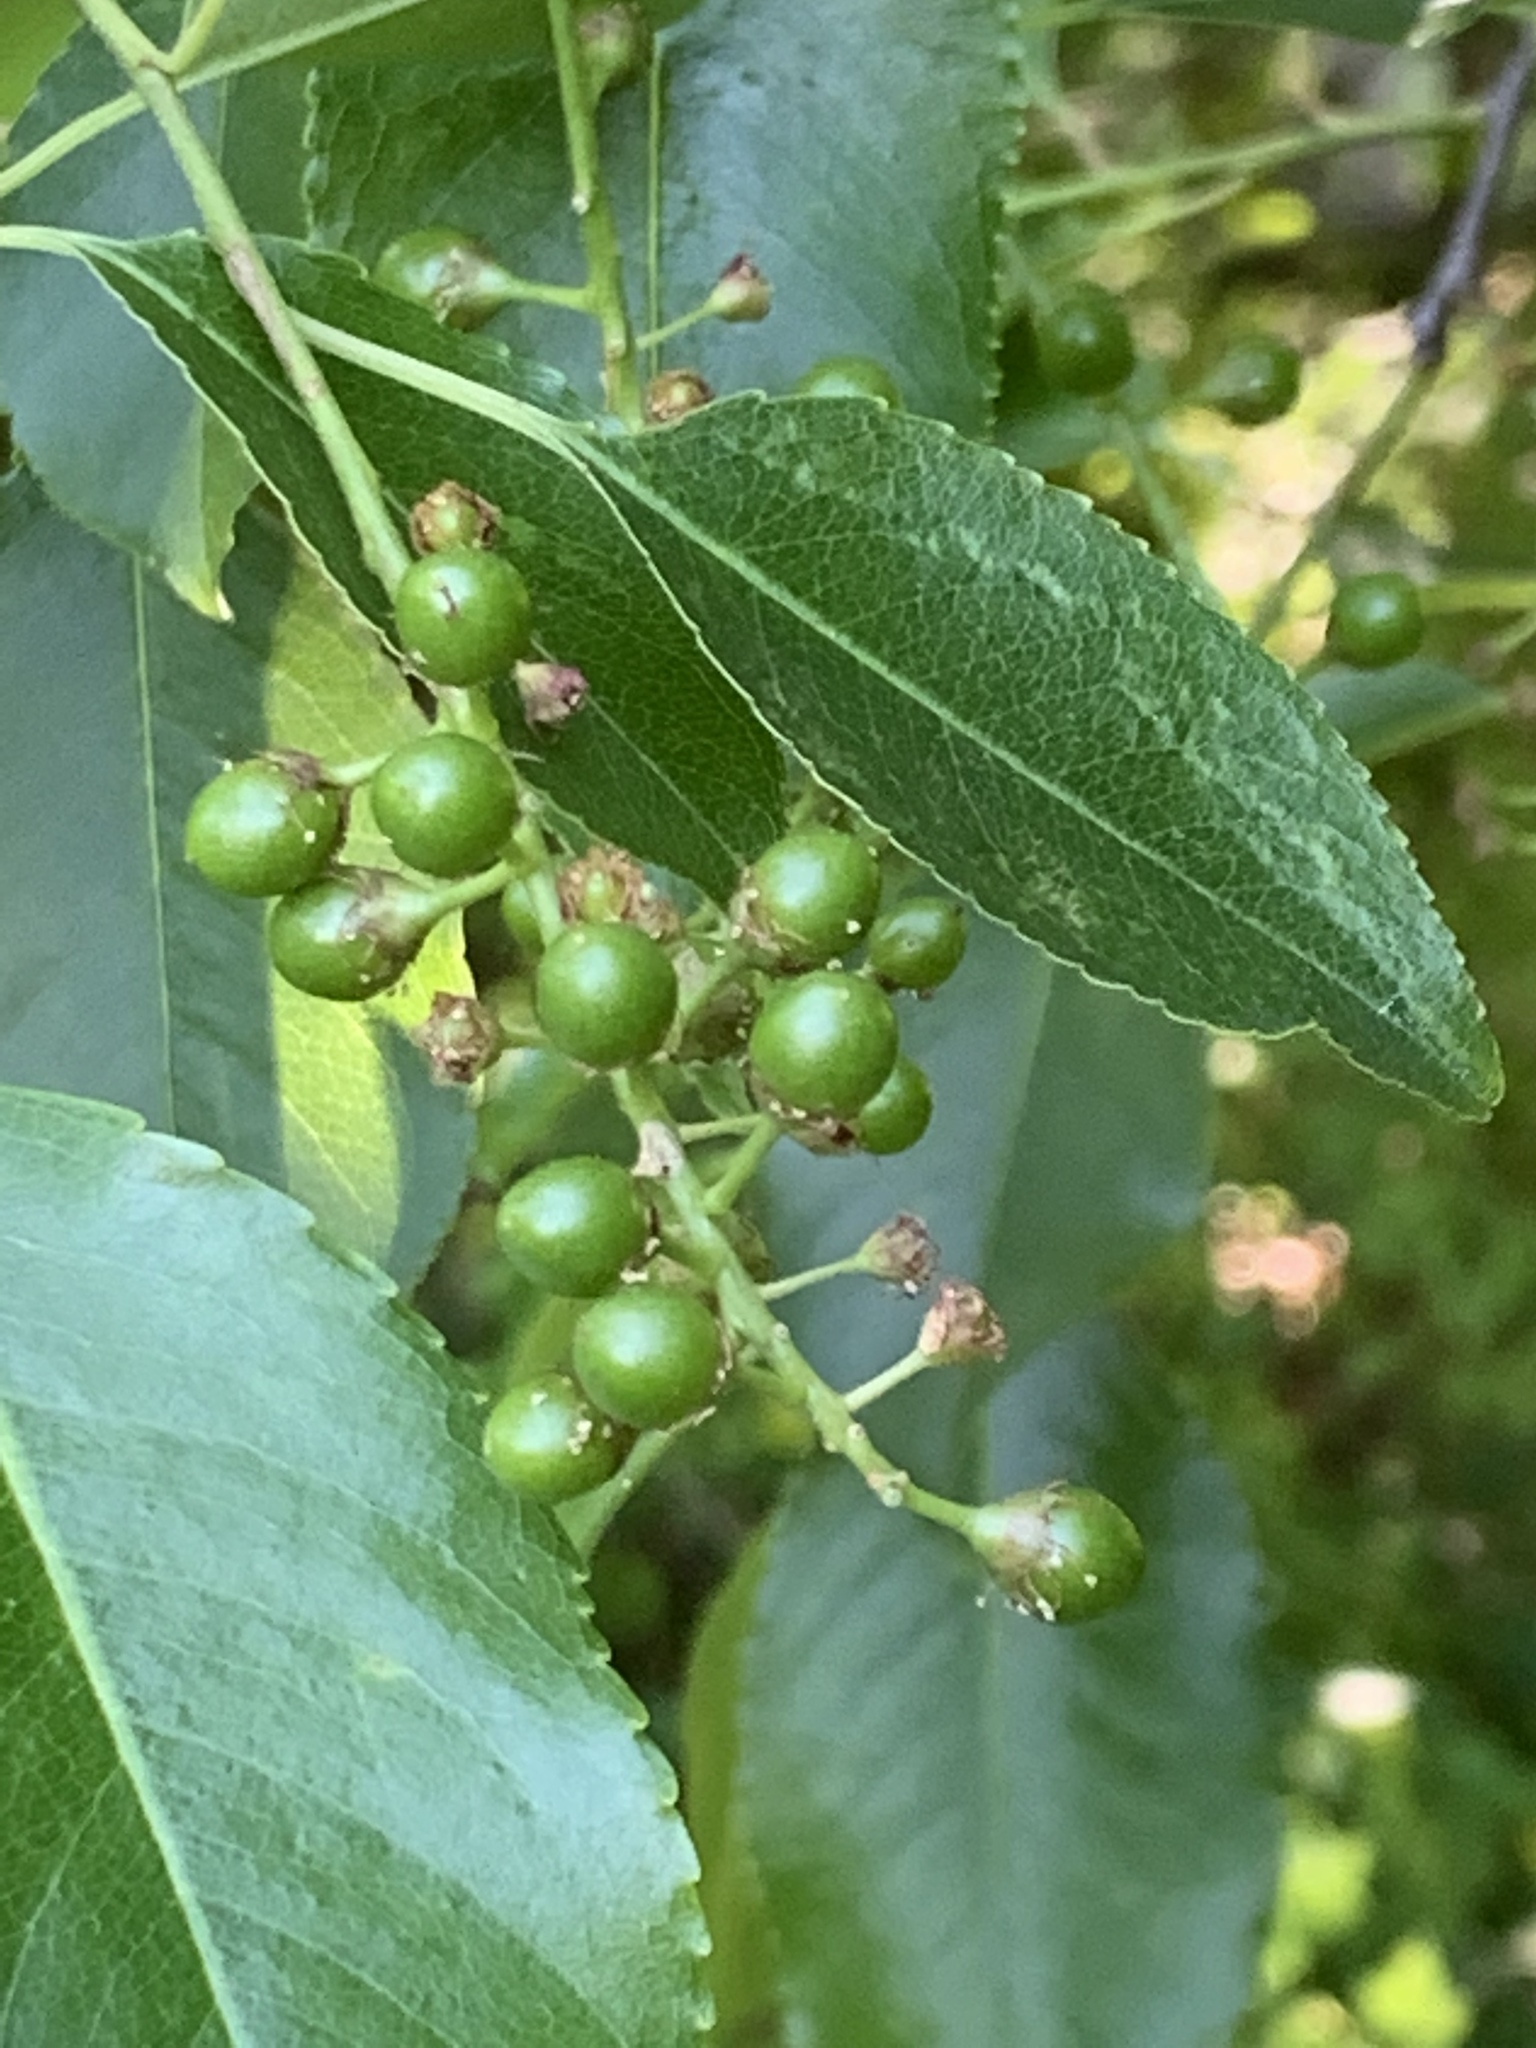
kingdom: Plantae
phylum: Tracheophyta
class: Magnoliopsida
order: Rosales
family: Rosaceae
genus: Prunus
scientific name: Prunus serotina
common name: Black cherry
